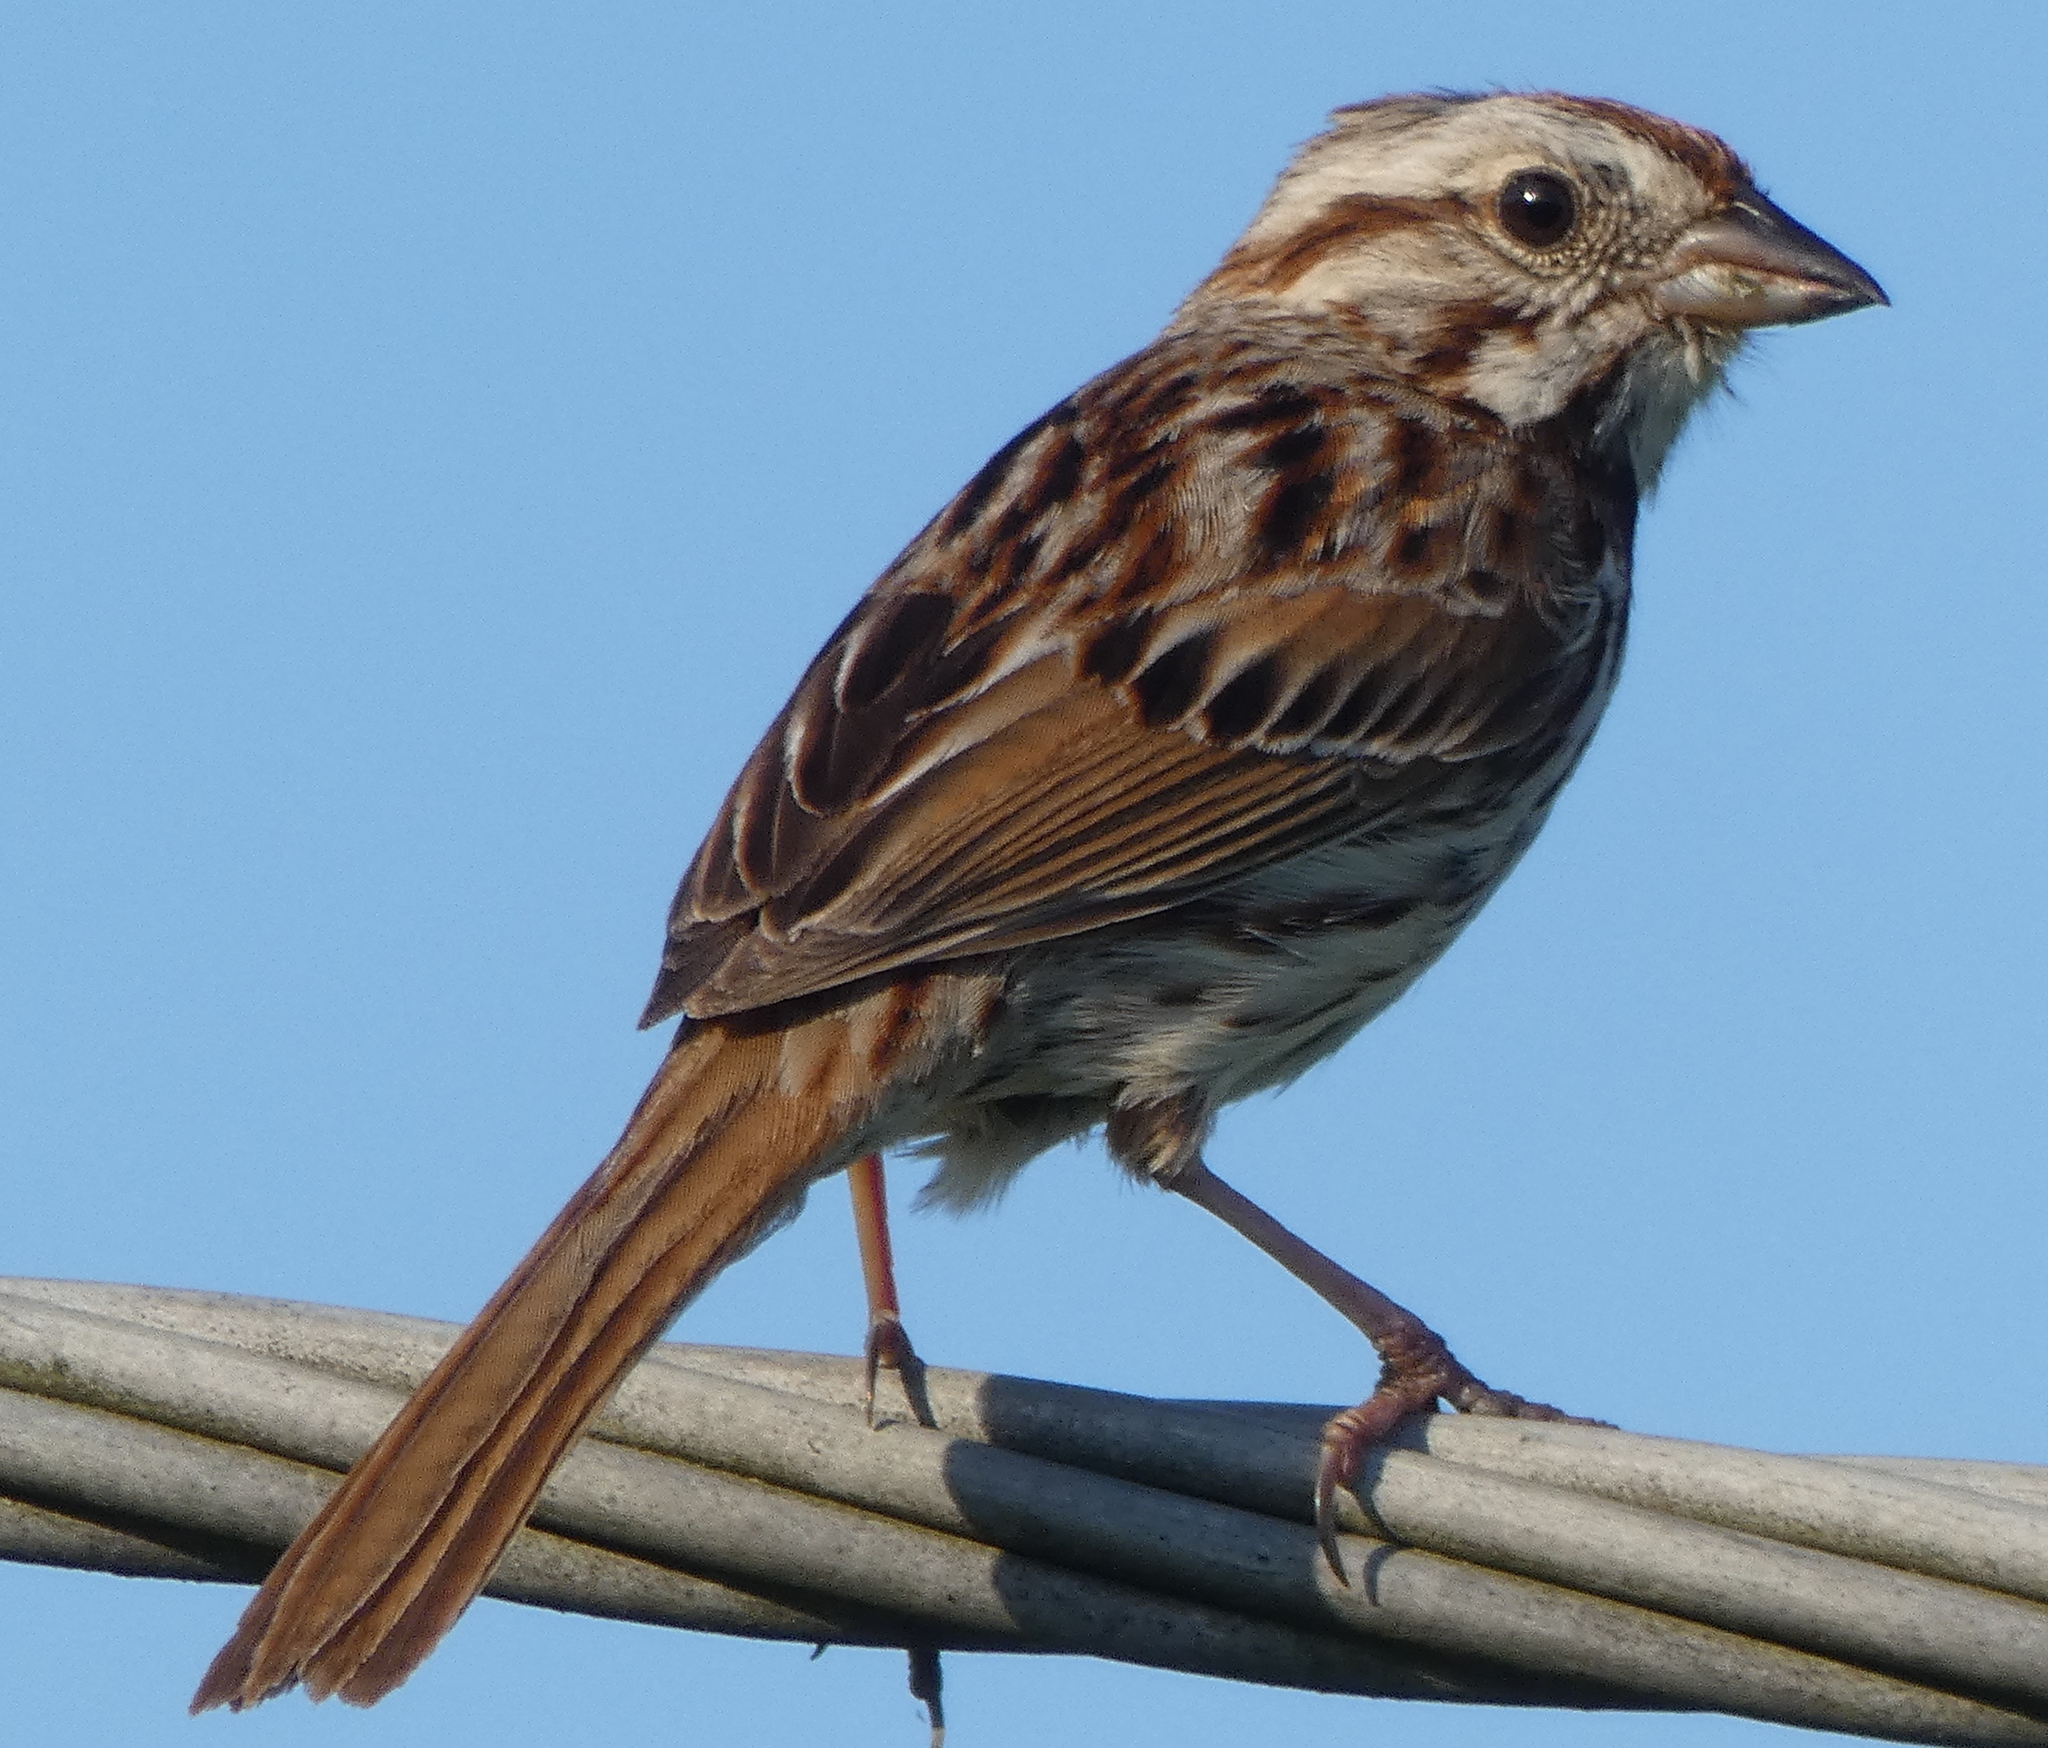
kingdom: Animalia
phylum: Chordata
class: Aves
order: Passeriformes
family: Passerellidae
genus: Melospiza
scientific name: Melospiza melodia
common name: Song sparrow
